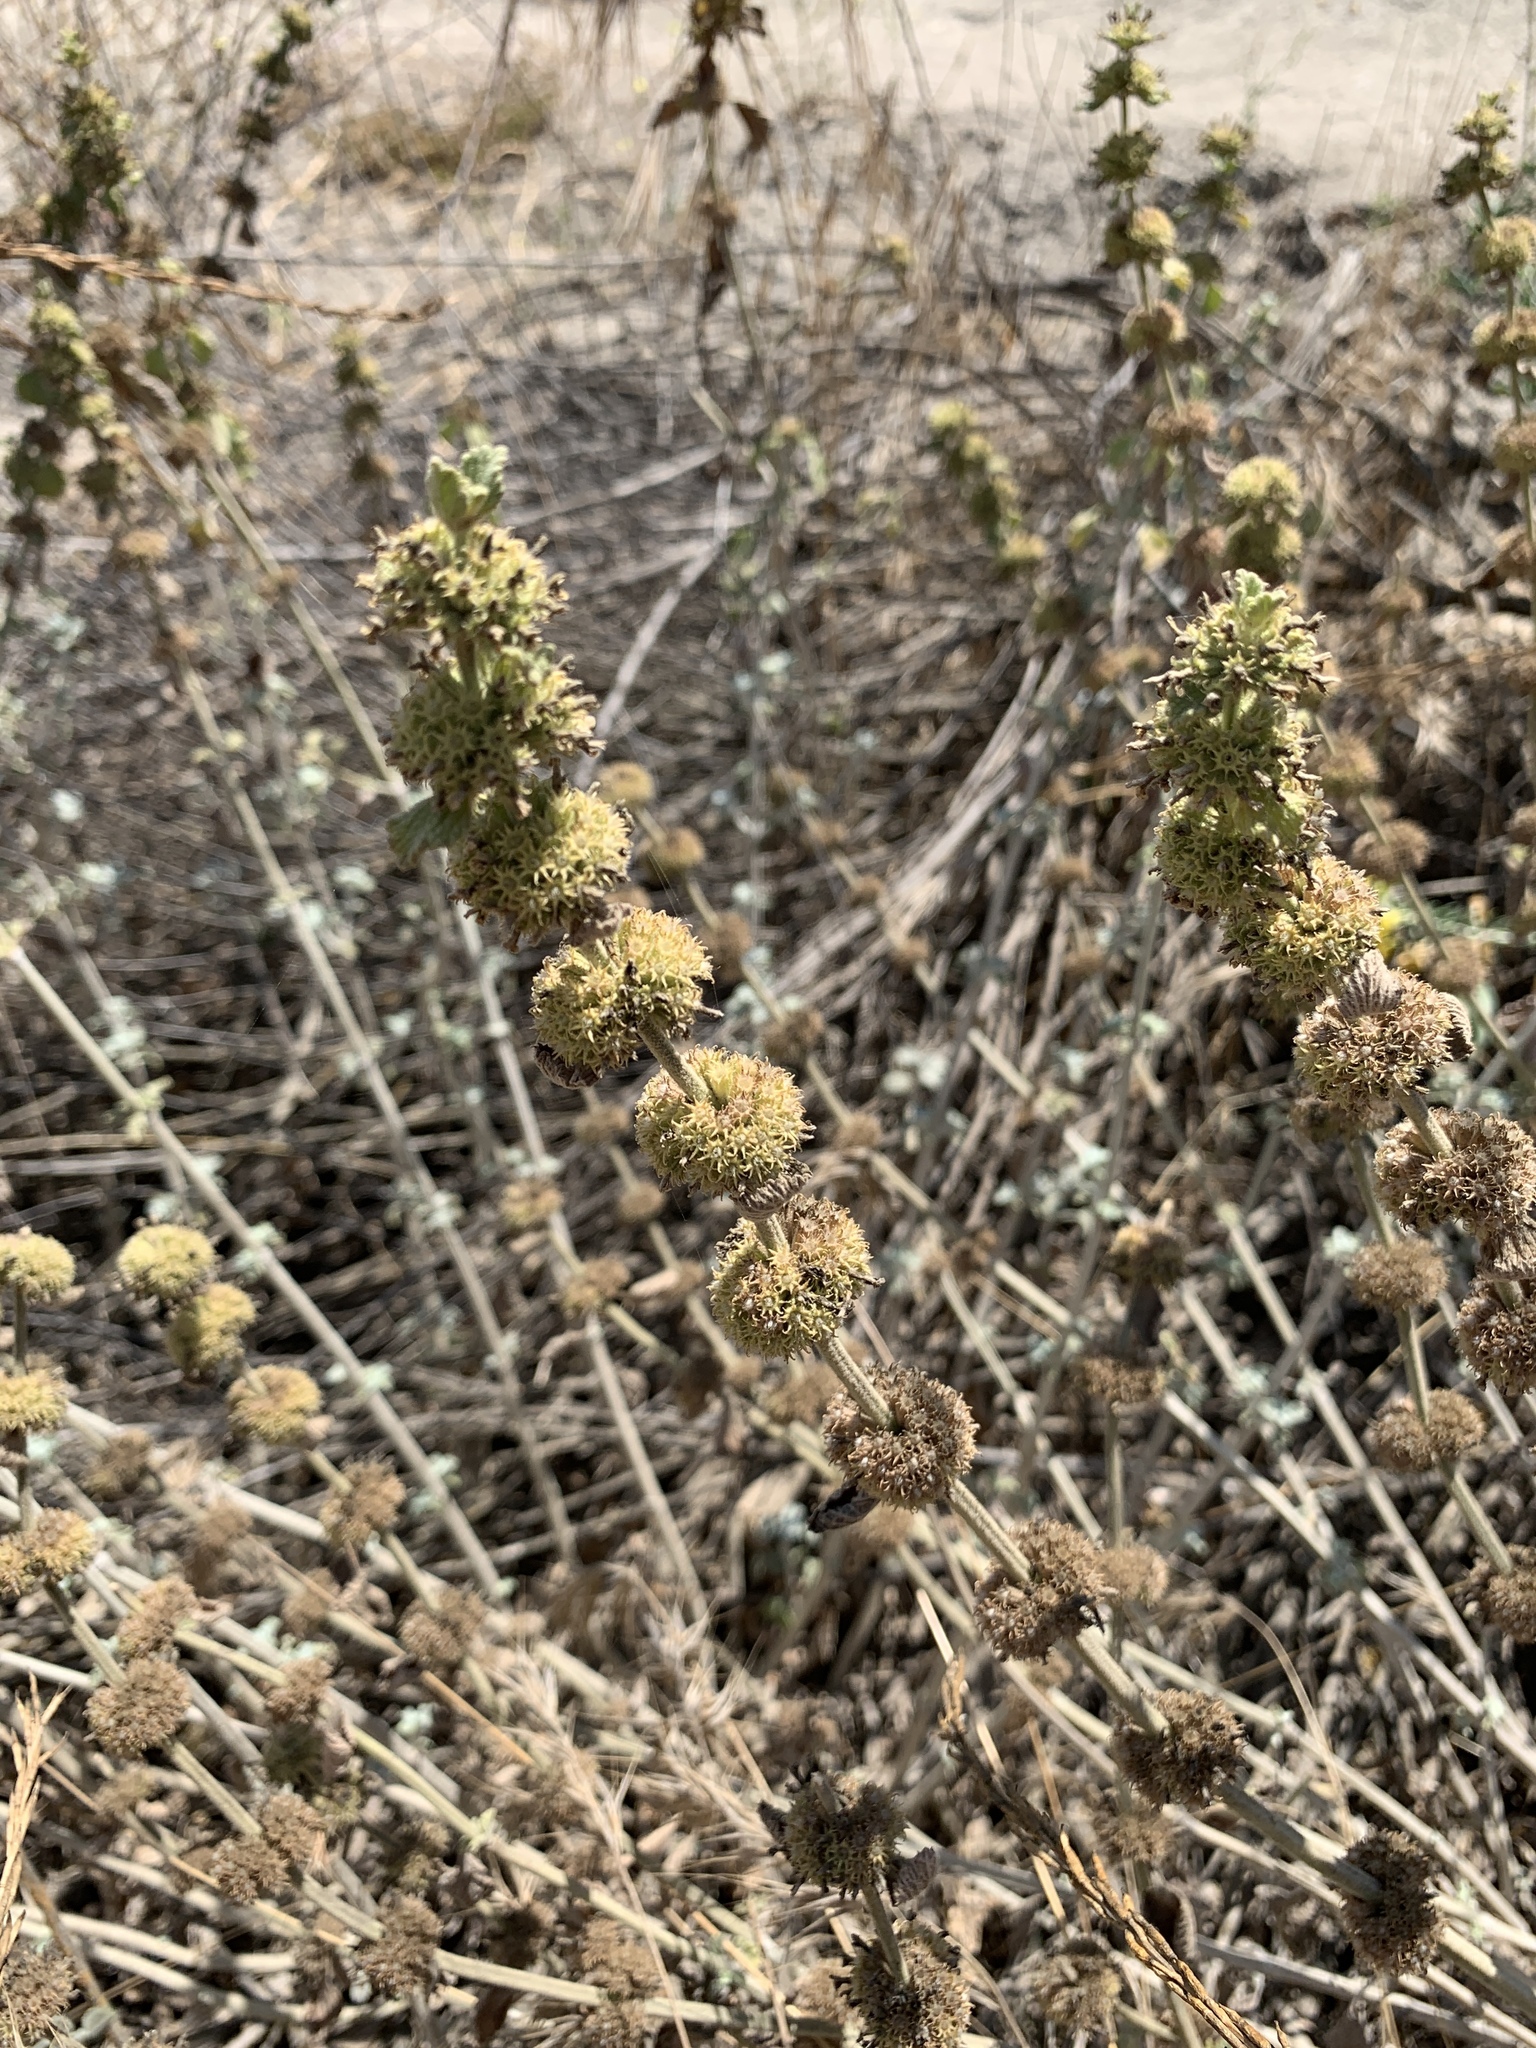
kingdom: Plantae
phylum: Tracheophyta
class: Magnoliopsida
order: Lamiales
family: Lamiaceae
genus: Marrubium
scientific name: Marrubium vulgare
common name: Horehound
